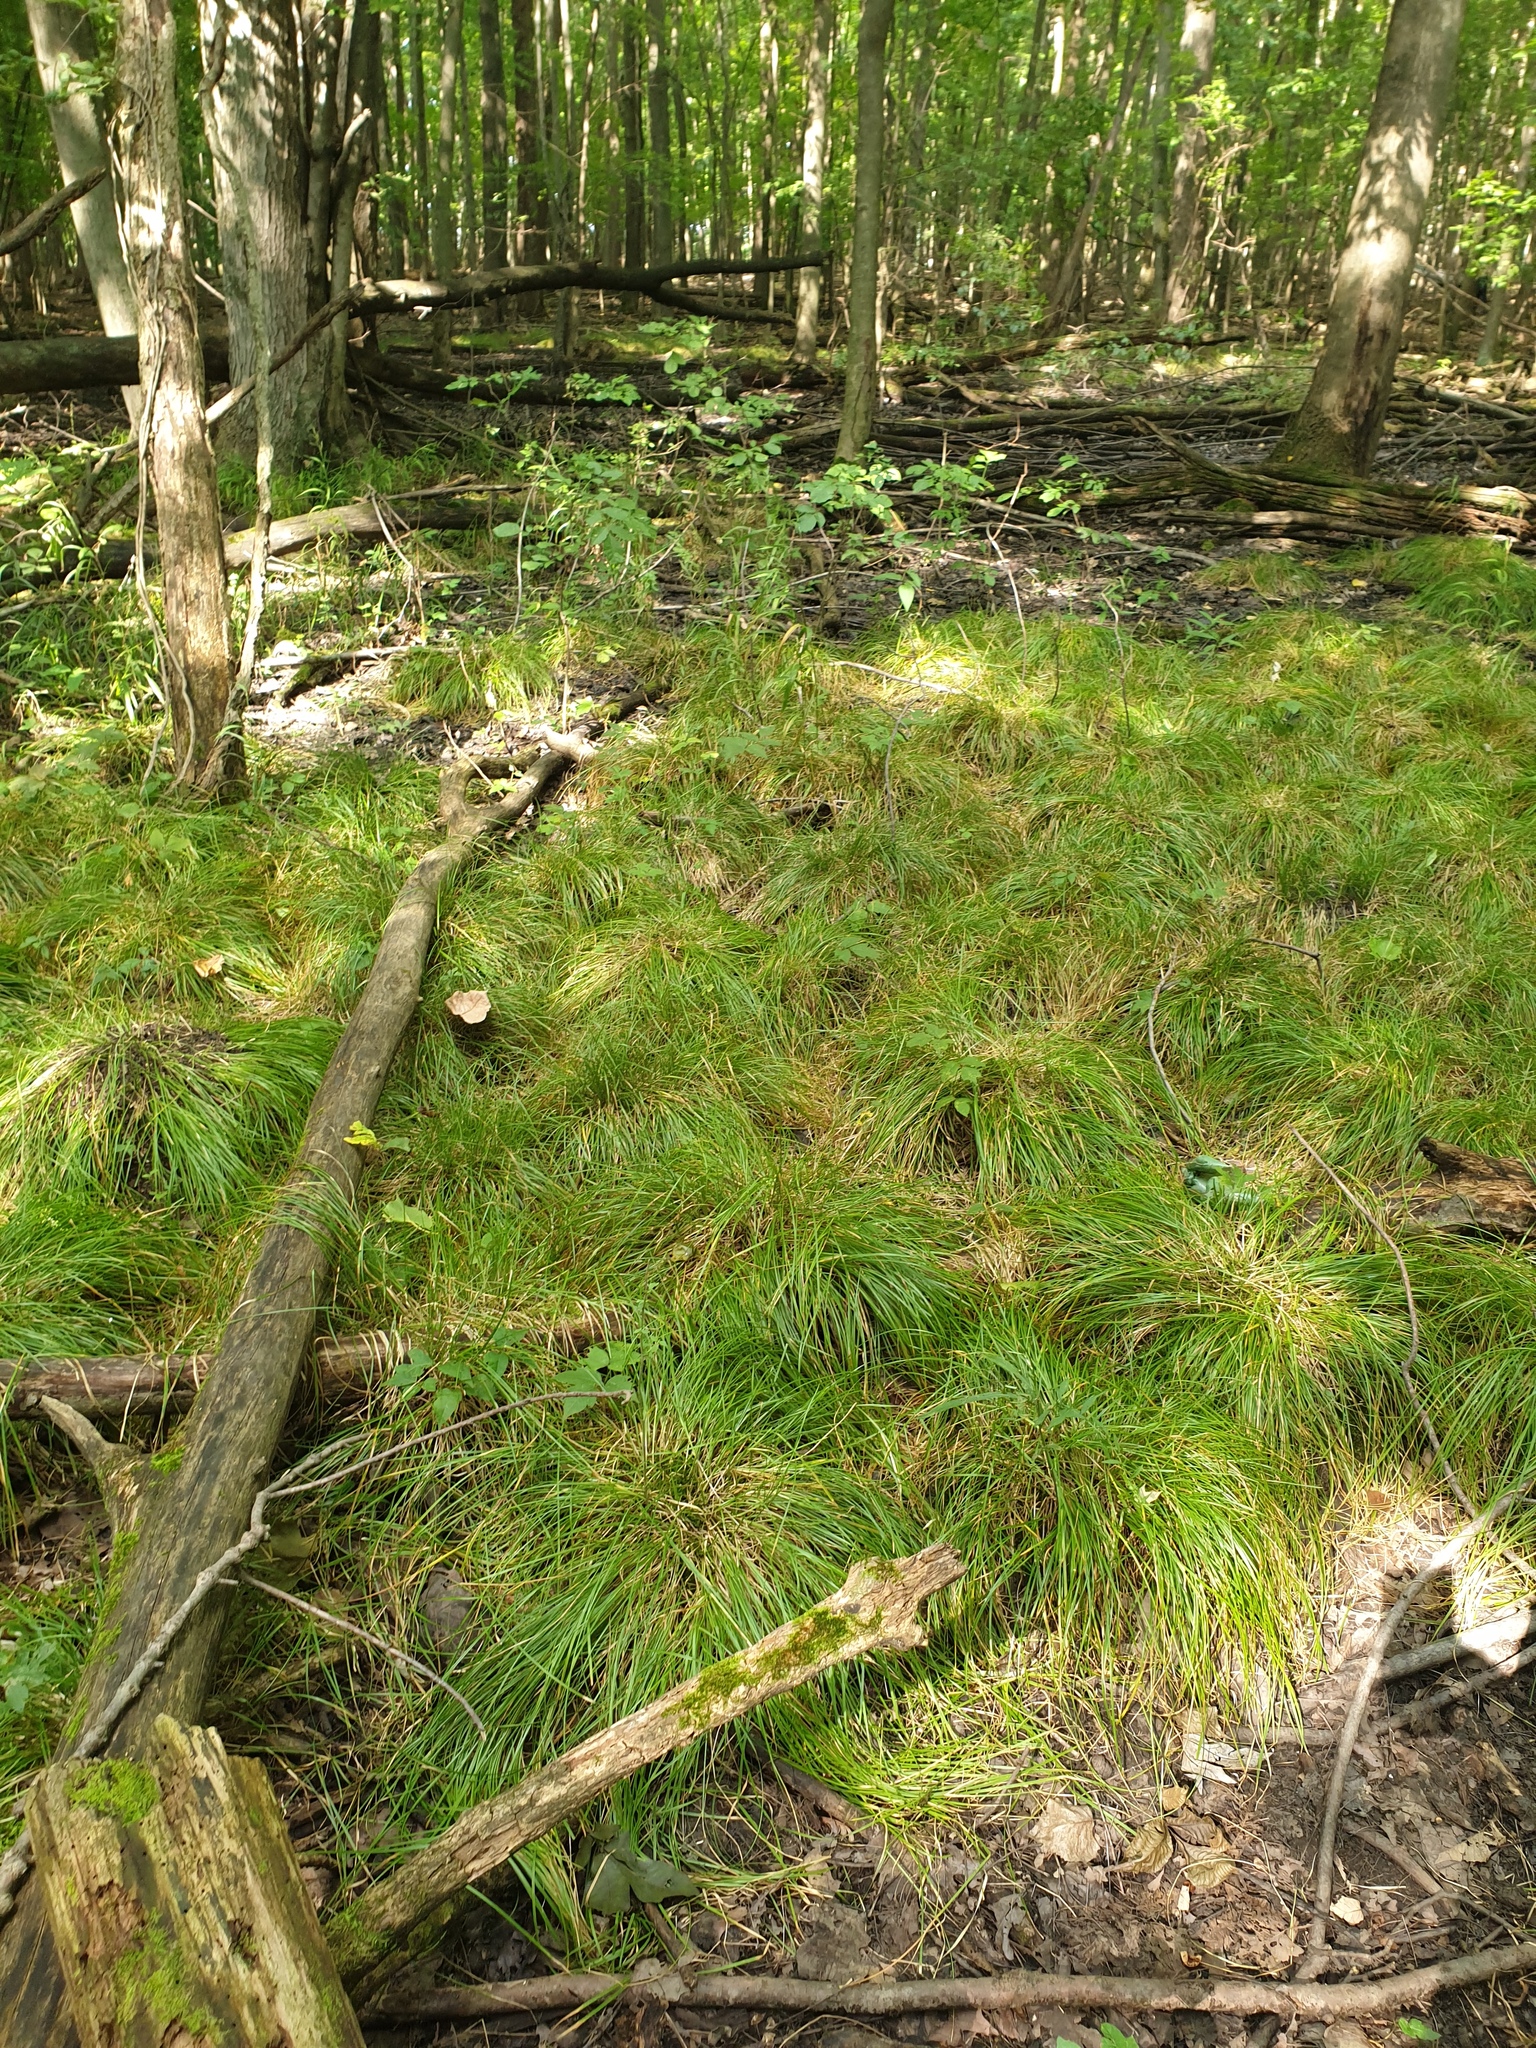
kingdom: Plantae
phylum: Tracheophyta
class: Liliopsida
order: Poales
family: Cyperaceae
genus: Carex
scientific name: Carex bromoides
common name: Brome hummock sedge
